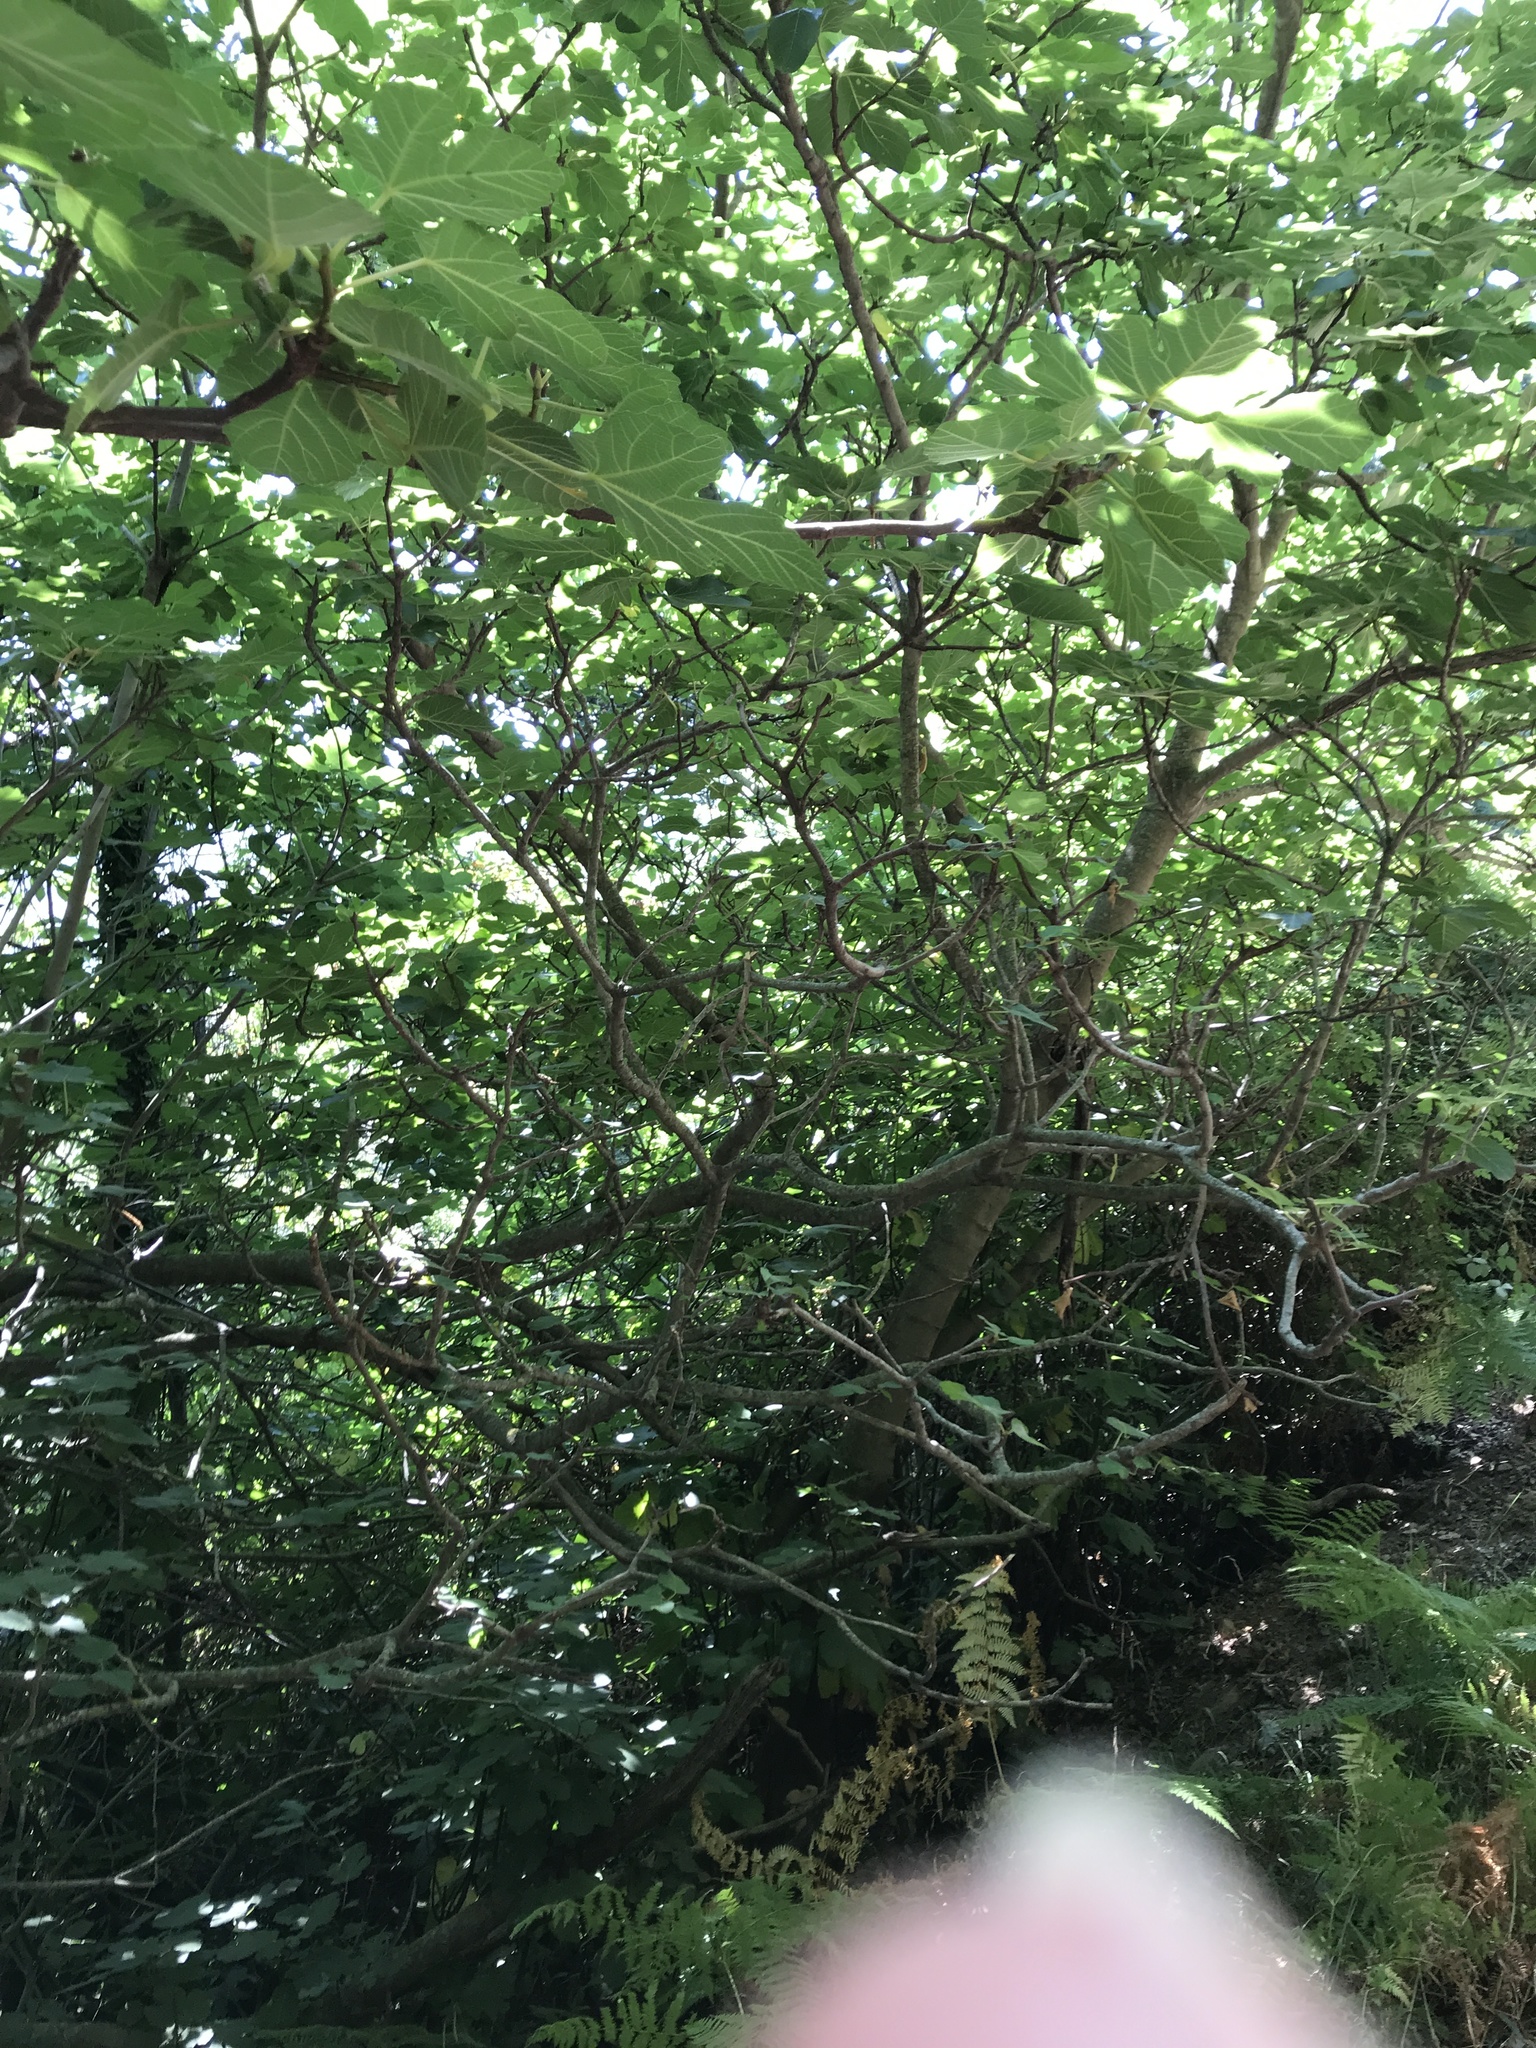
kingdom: Plantae
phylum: Tracheophyta
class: Magnoliopsida
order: Rosales
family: Moraceae
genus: Ficus
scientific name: Ficus carica
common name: Fig
